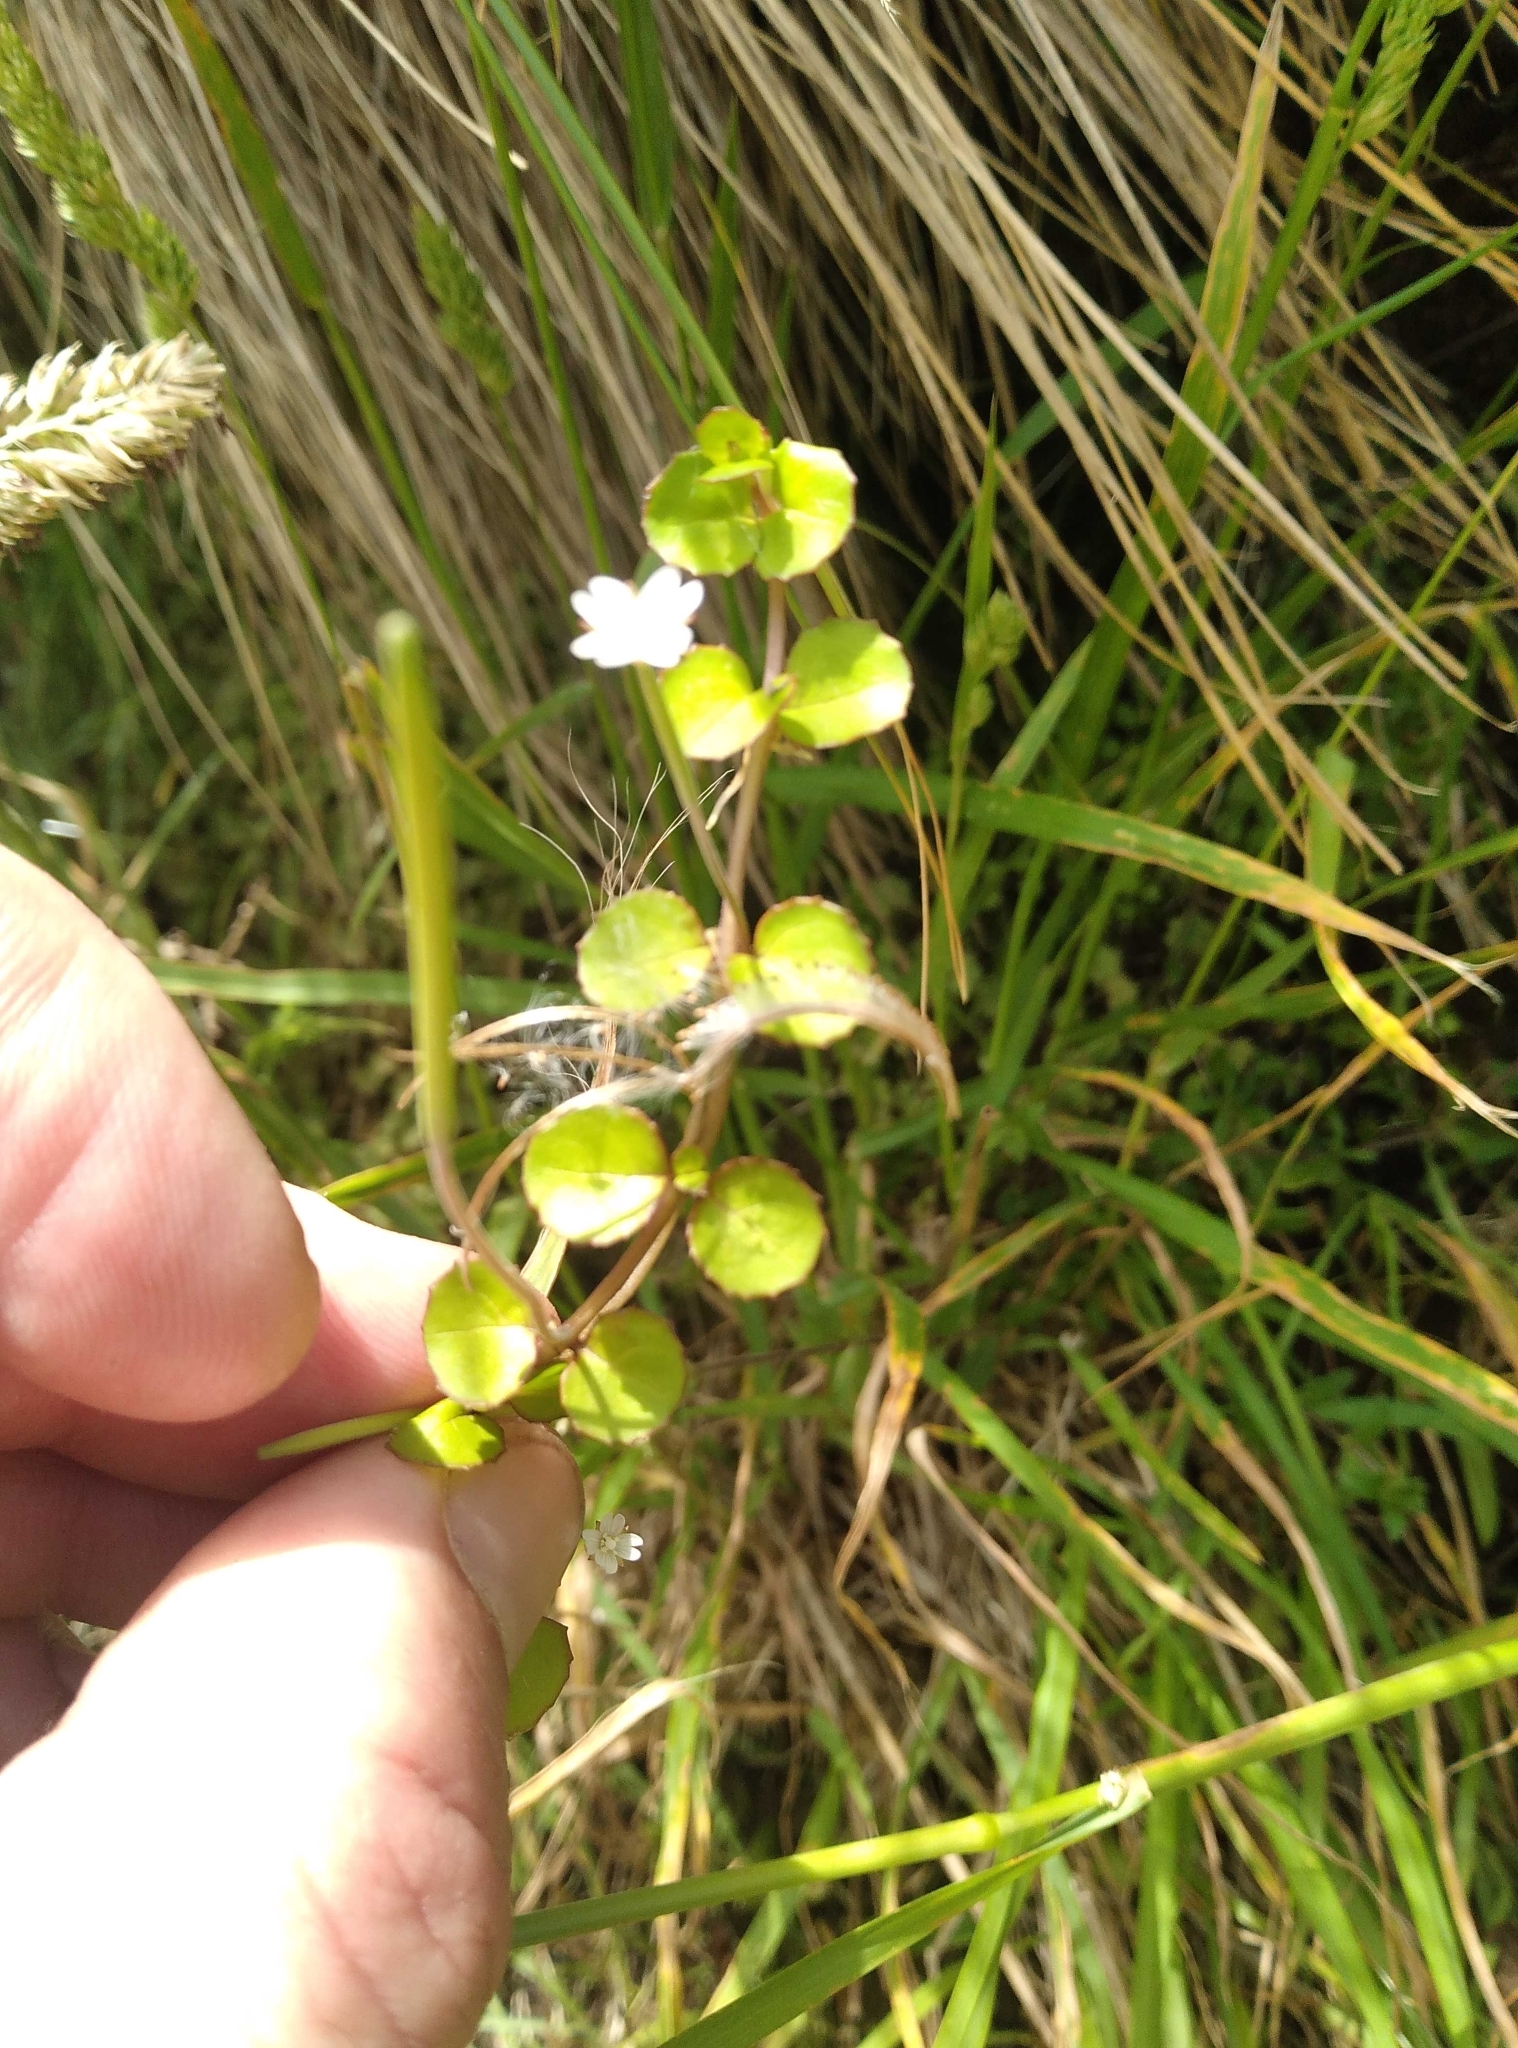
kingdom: Plantae
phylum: Tracheophyta
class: Magnoliopsida
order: Myrtales
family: Onagraceae
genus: Epilobium
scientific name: Epilobium nummularifolium
